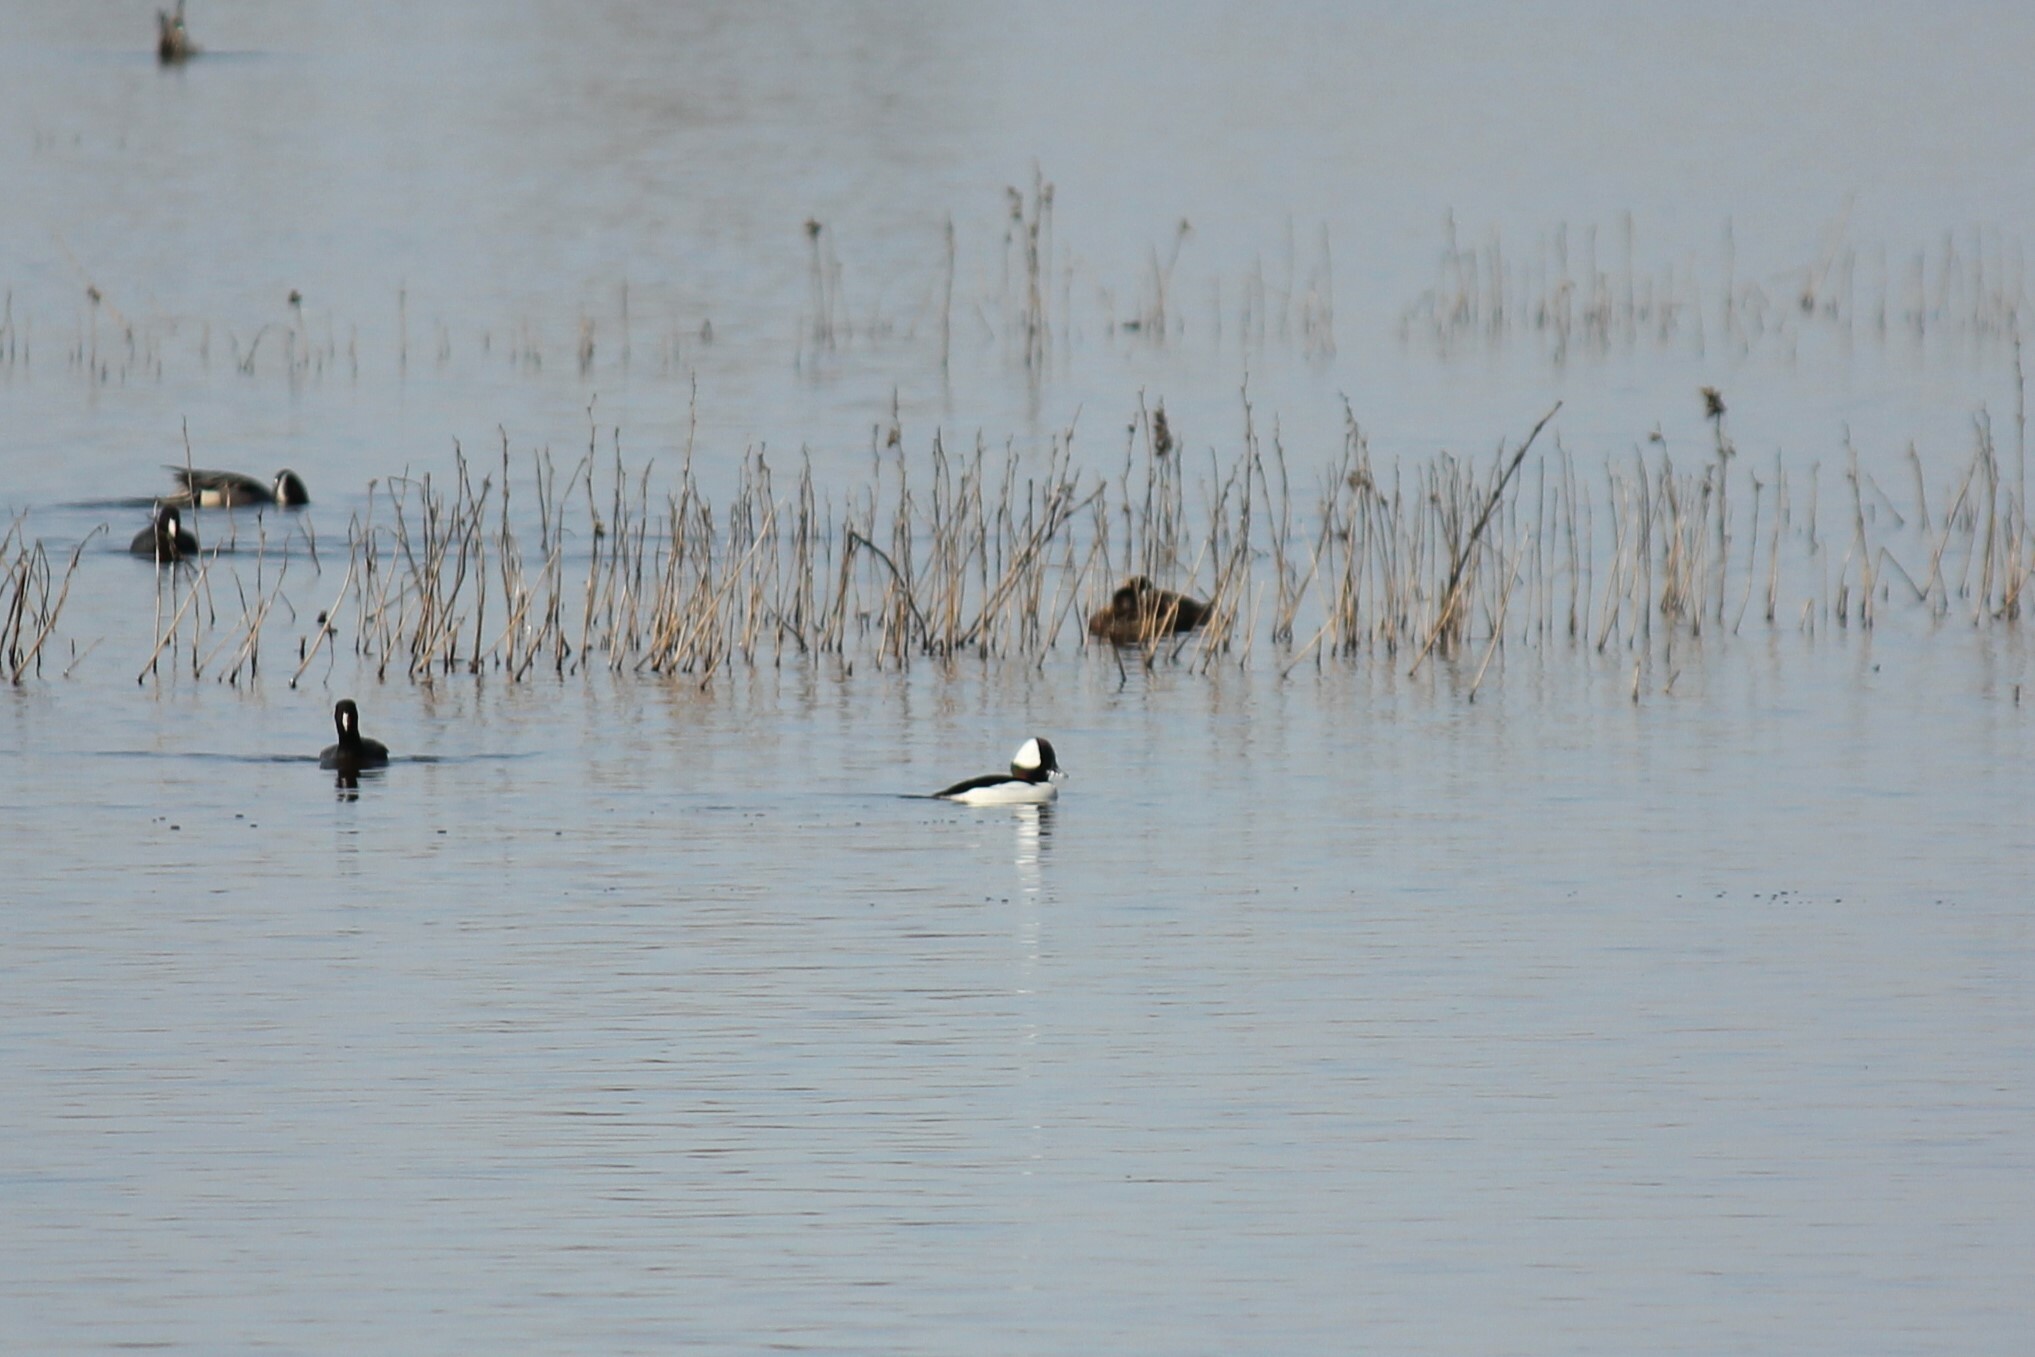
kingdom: Animalia
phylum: Chordata
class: Aves
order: Anseriformes
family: Anatidae
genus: Bucephala
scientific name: Bucephala albeola
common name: Bufflehead
